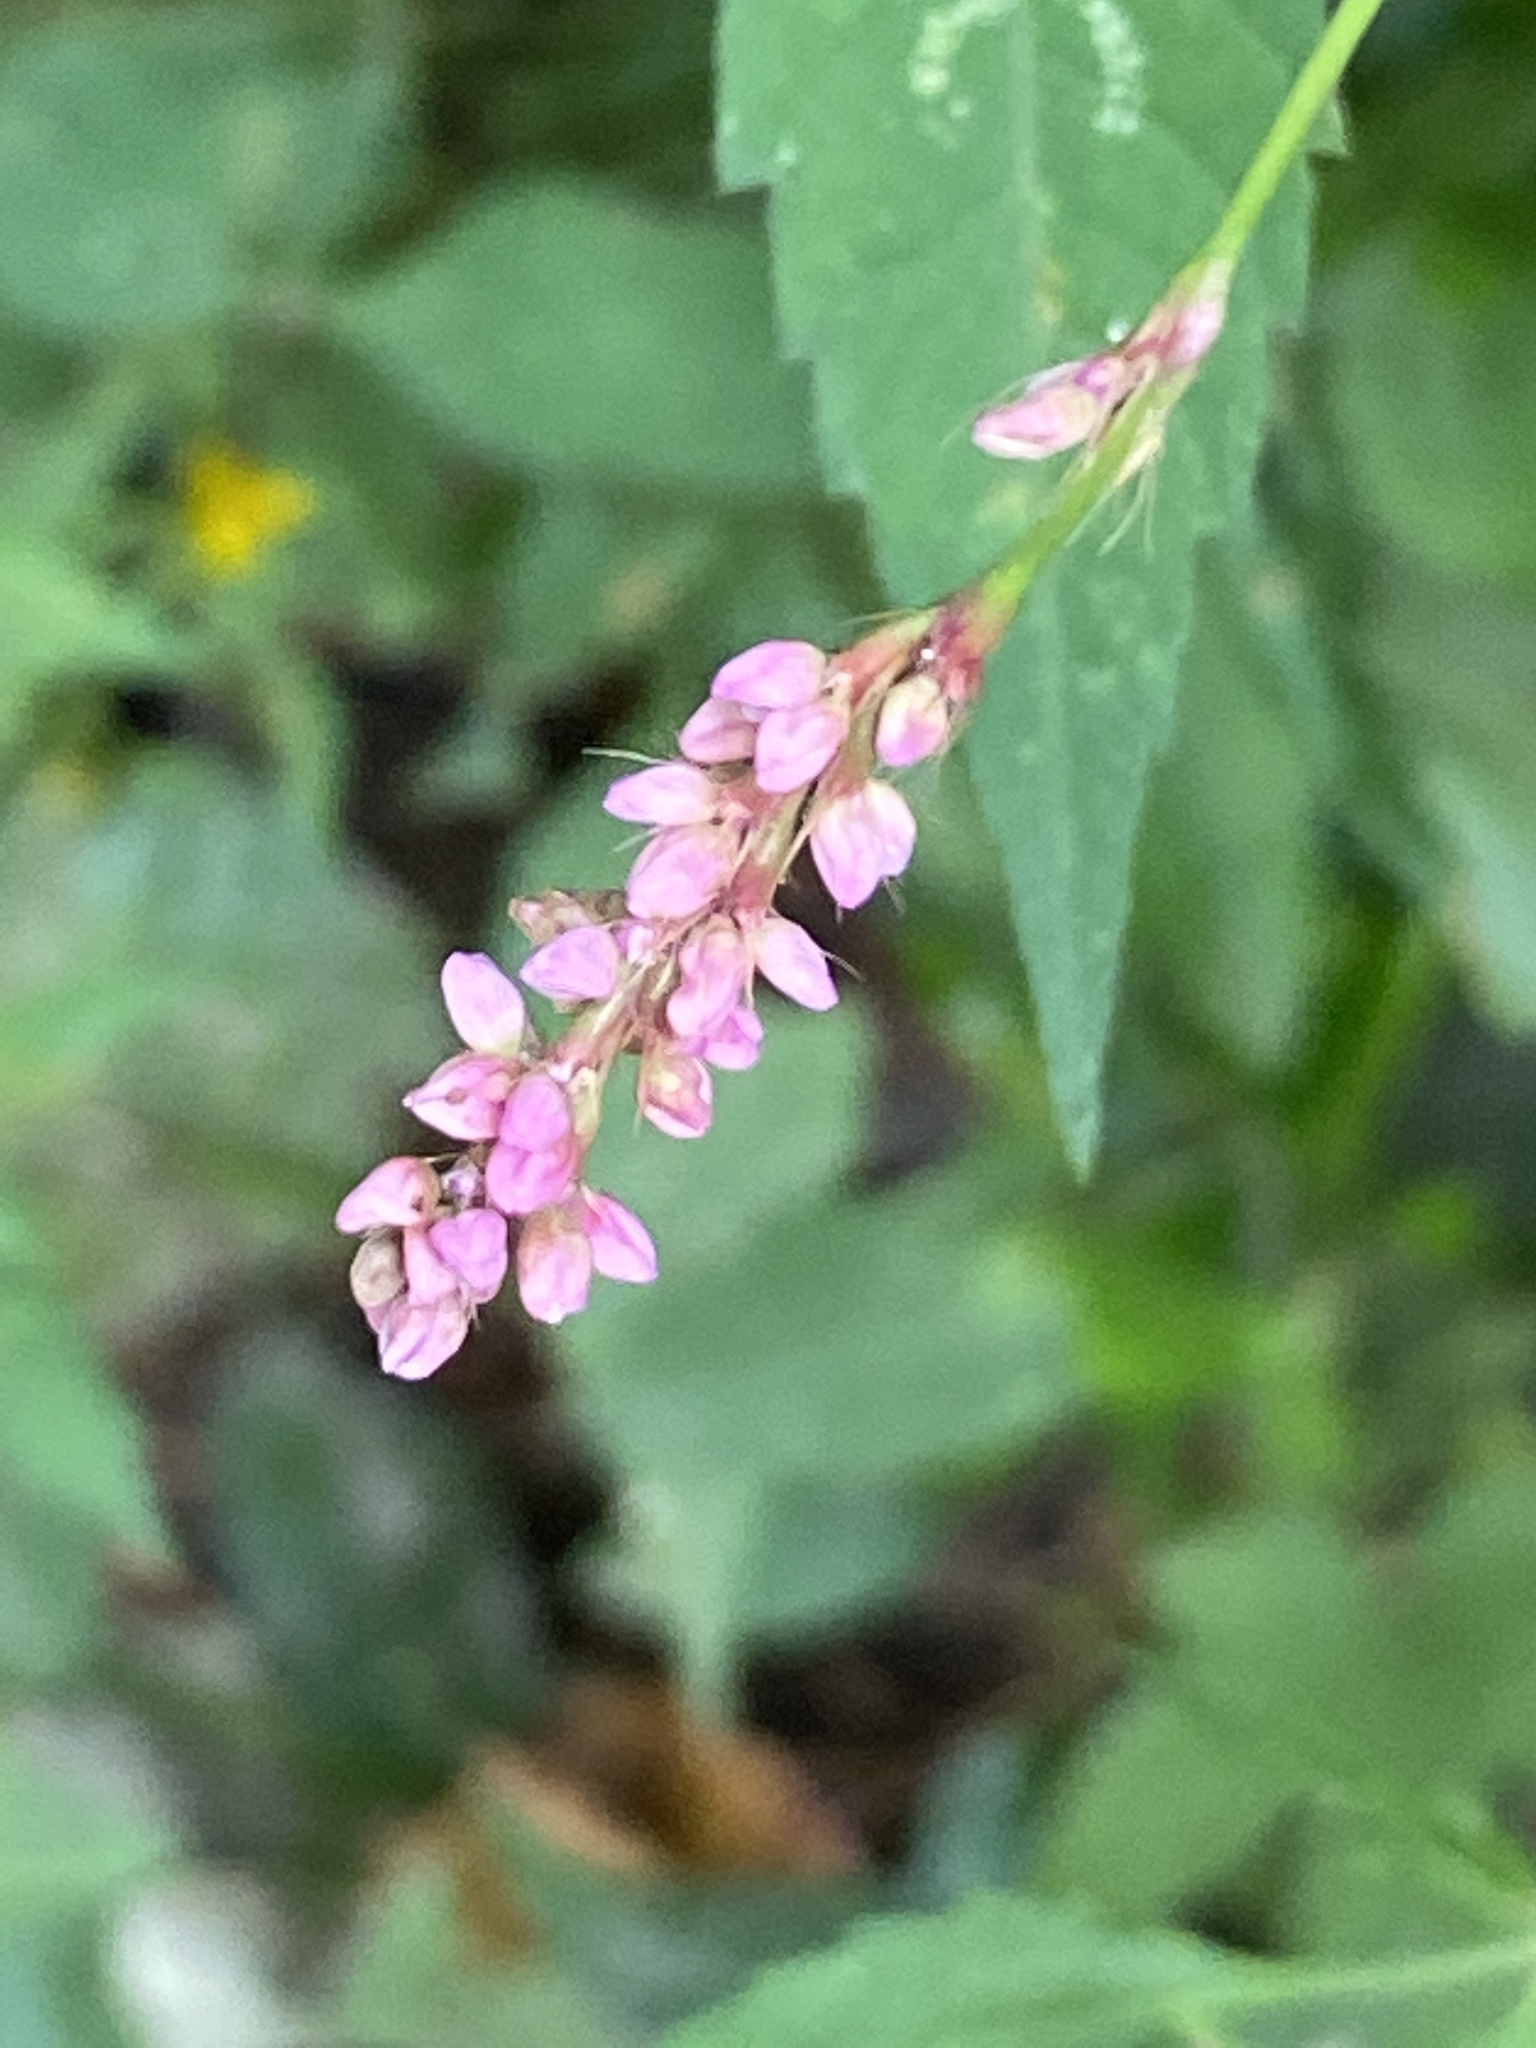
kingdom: Plantae
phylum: Tracheophyta
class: Magnoliopsida
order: Caryophyllales
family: Polygonaceae
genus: Persicaria
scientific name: Persicaria longiseta
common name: Bristly lady's-thumb
